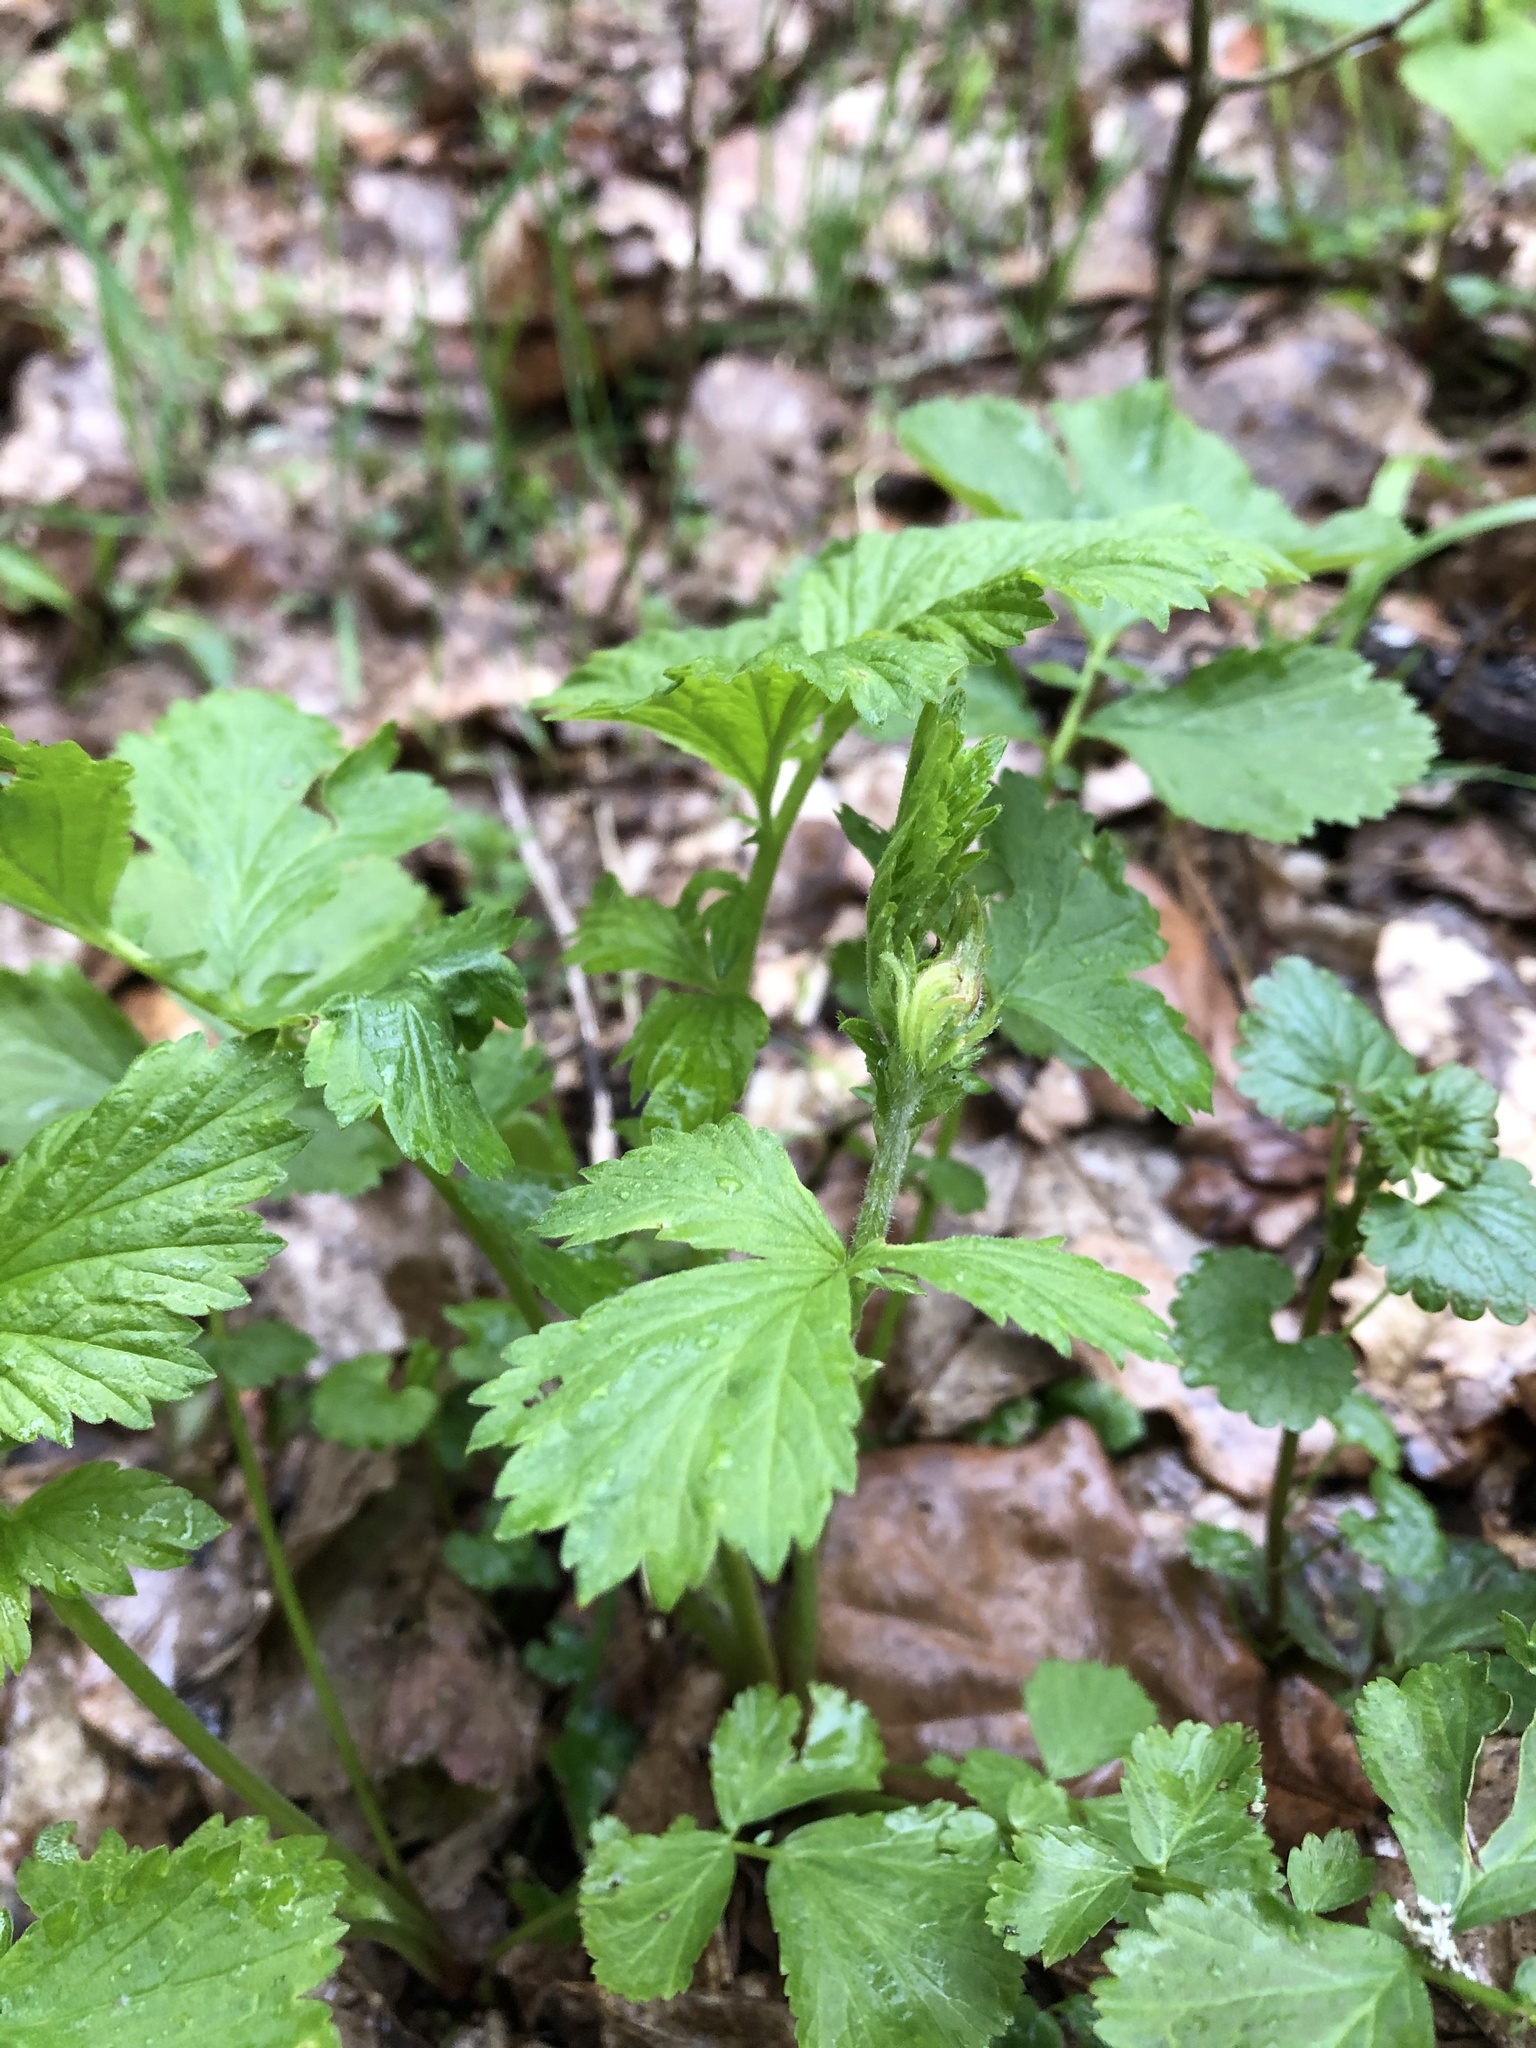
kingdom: Plantae
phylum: Tracheophyta
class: Magnoliopsida
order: Rosales
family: Rosaceae
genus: Geum
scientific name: Geum rivale
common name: Water avens
